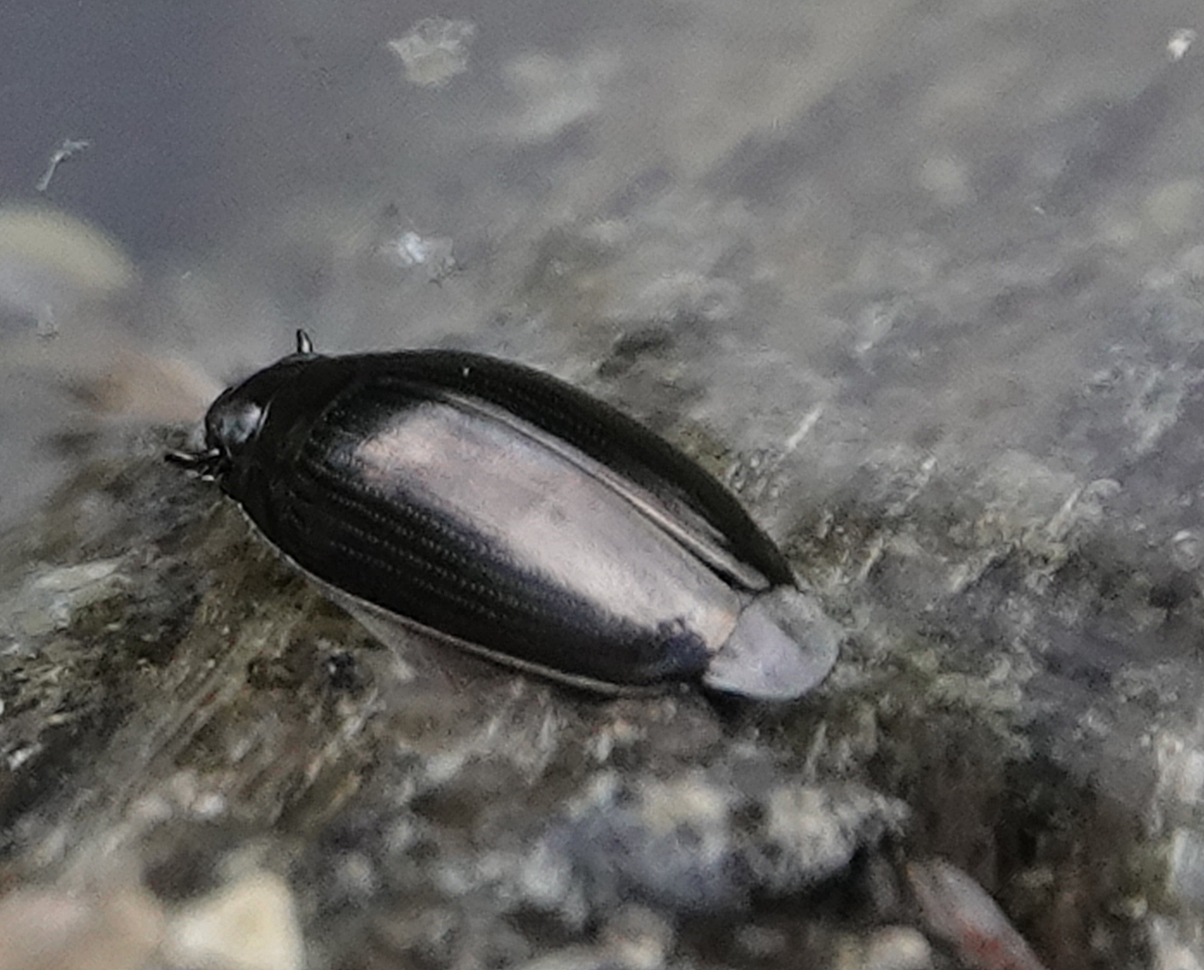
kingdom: Animalia
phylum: Arthropoda
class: Insecta
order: Coleoptera
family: Gyrinidae
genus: Gyrinus
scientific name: Gyrinus
